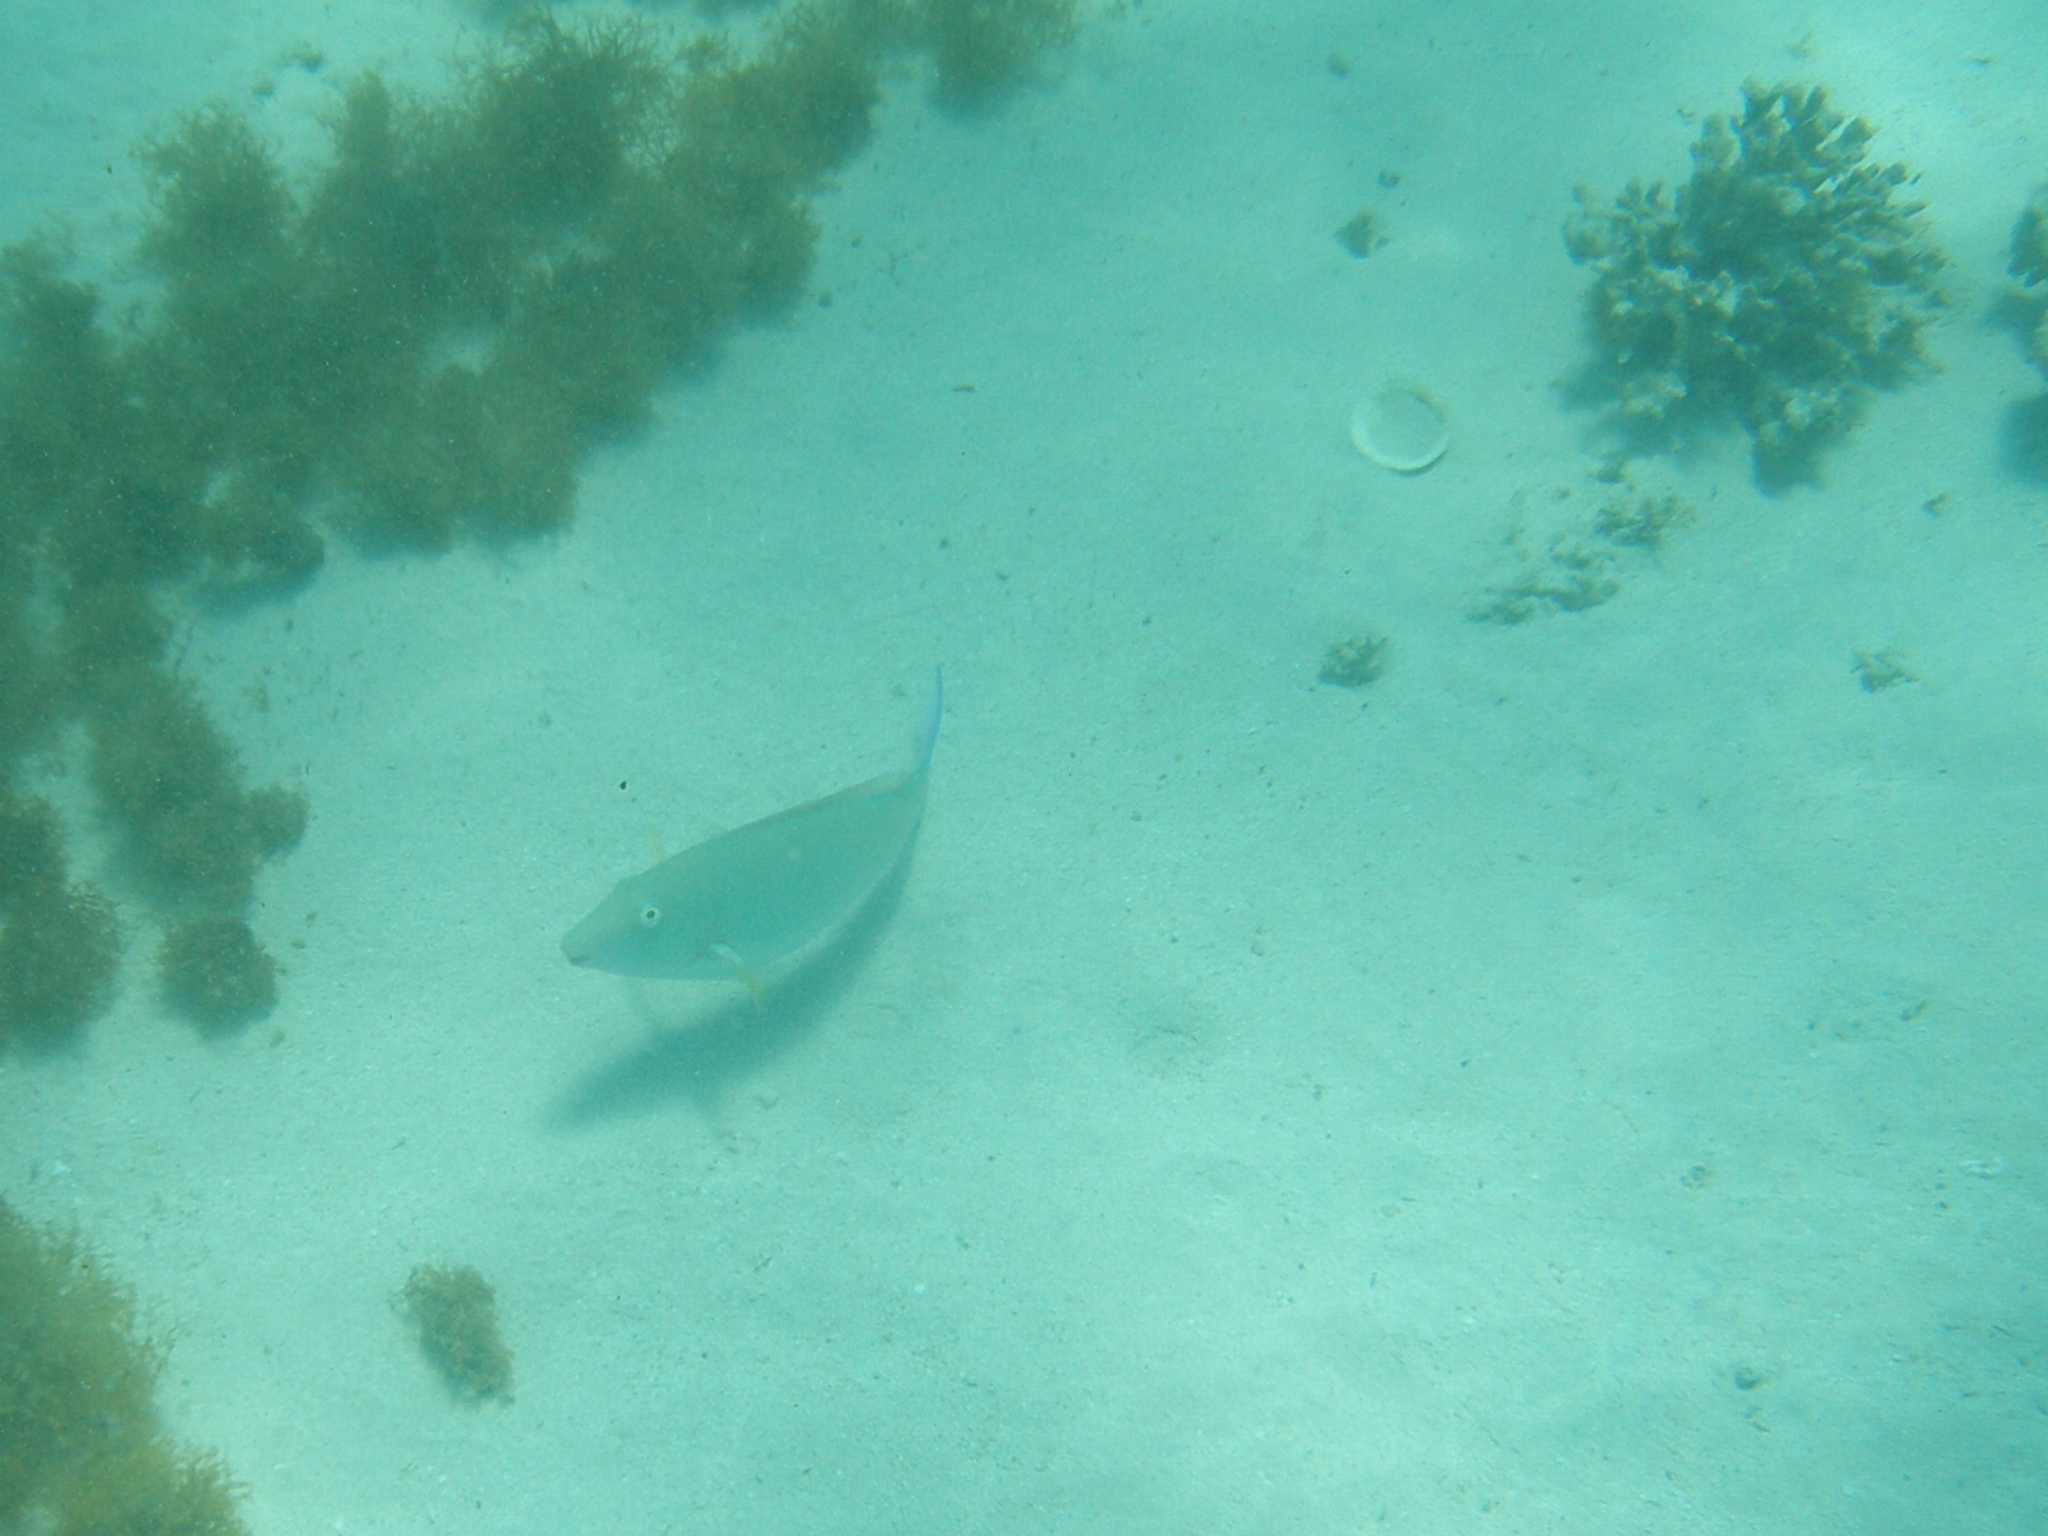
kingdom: Animalia
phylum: Chordata
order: Perciformes
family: Scaridae
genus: Hipposcarus
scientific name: Hipposcarus harid
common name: Candelamoa parrotfish
